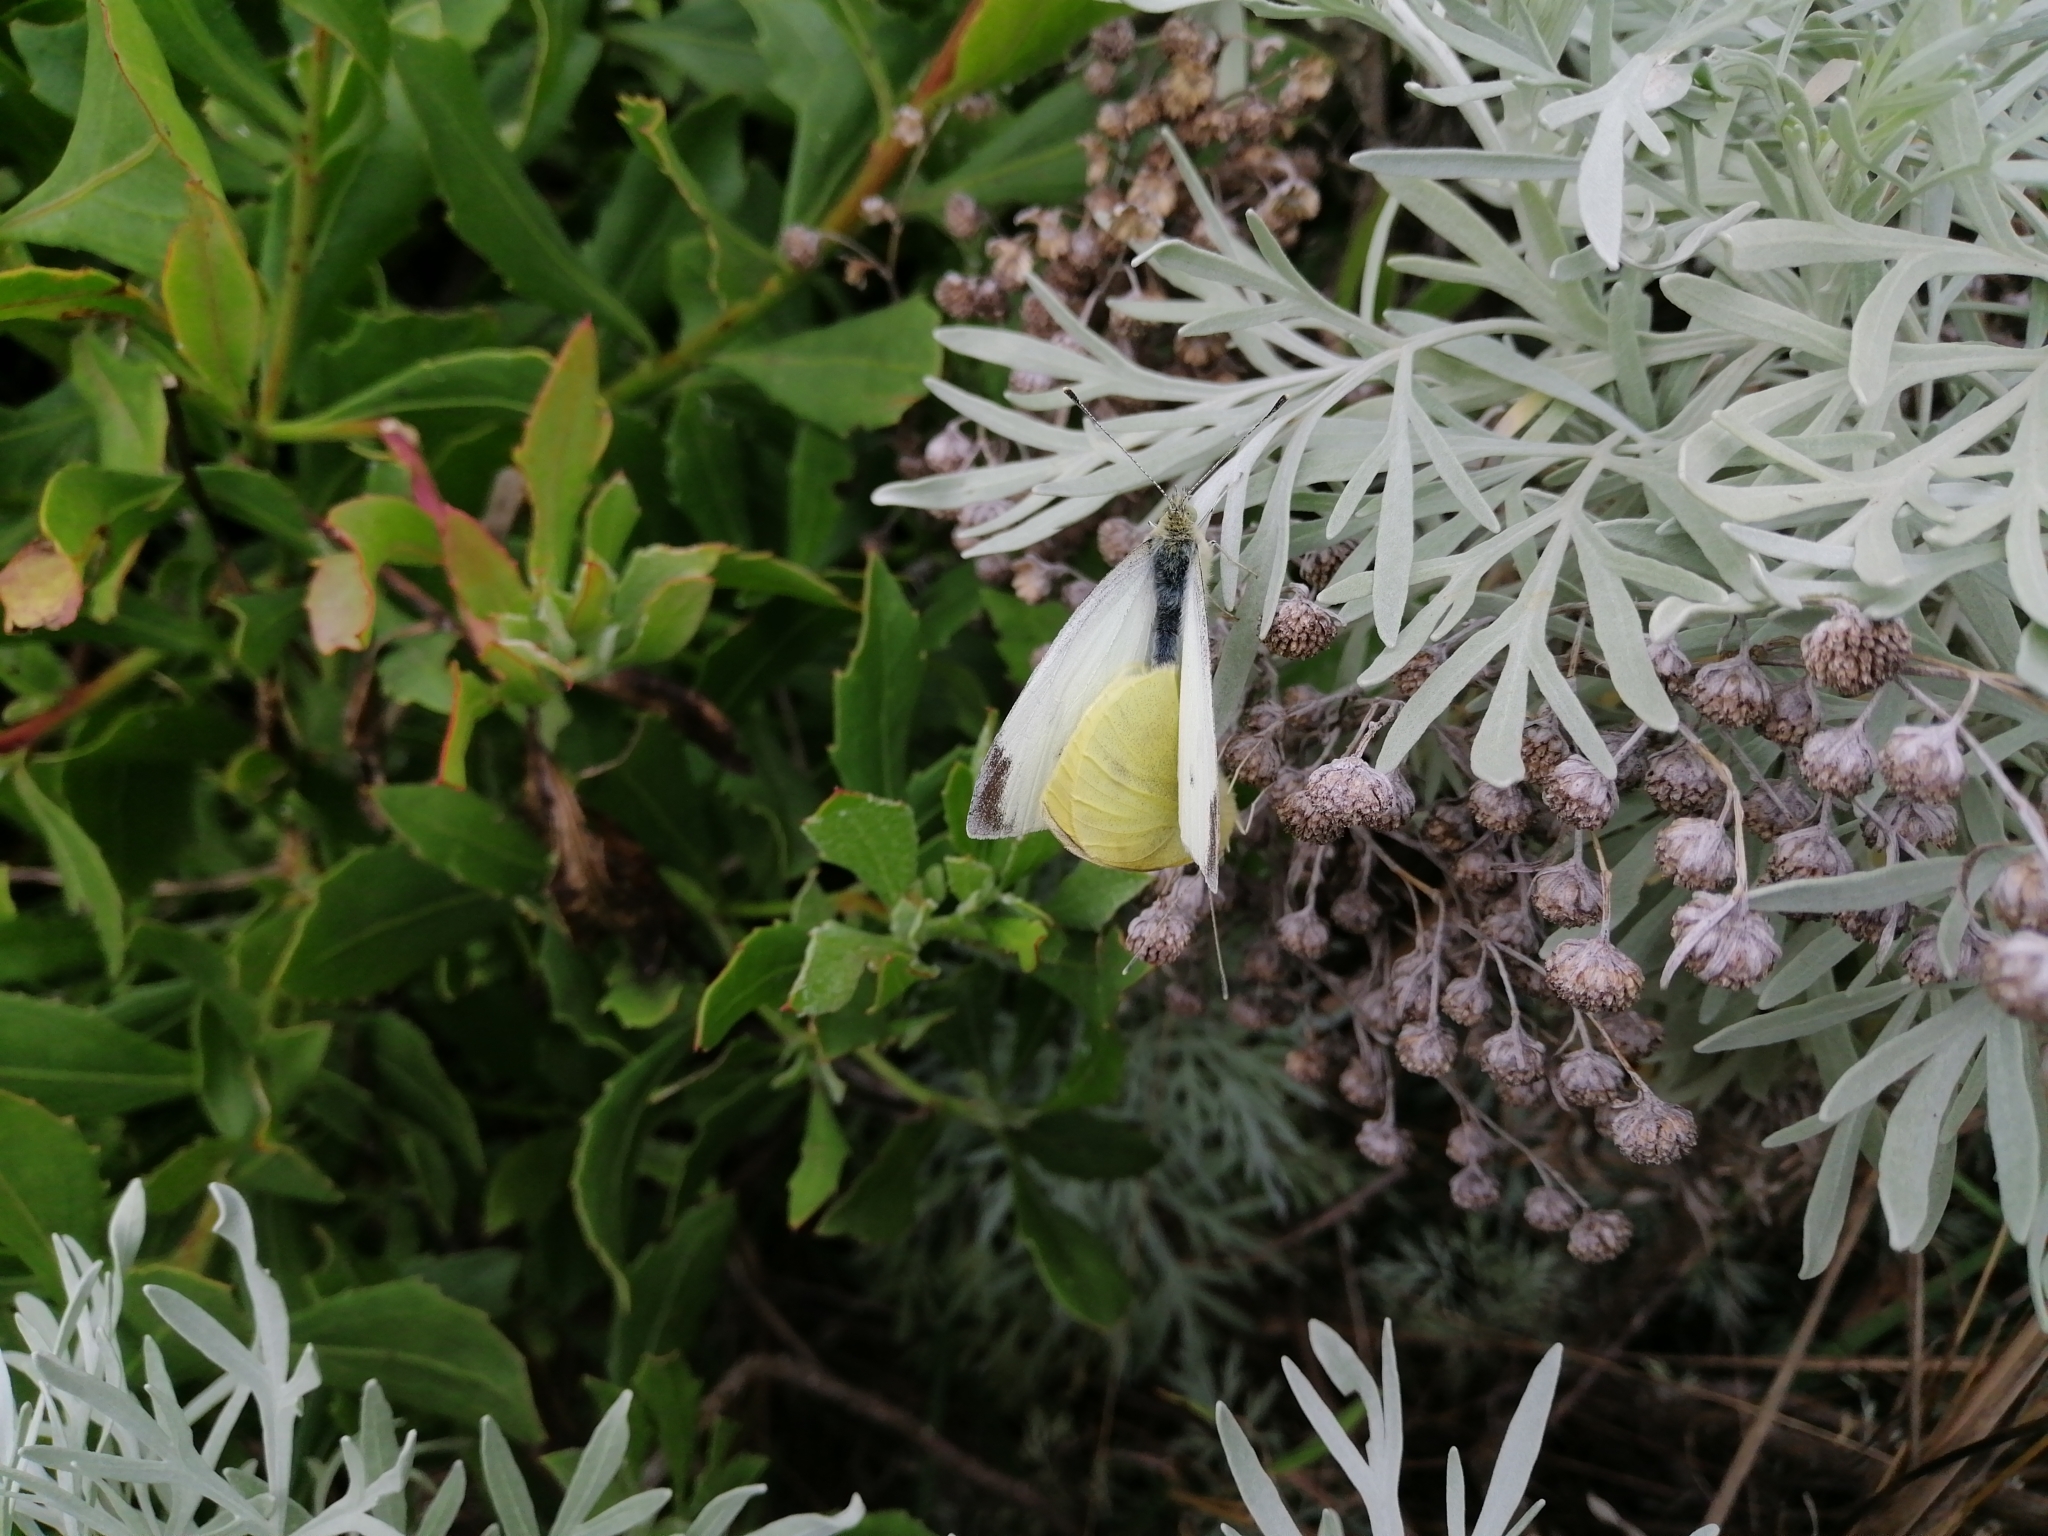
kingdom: Animalia
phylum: Arthropoda
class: Insecta
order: Lepidoptera
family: Pieridae
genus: Pieris
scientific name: Pieris rapae
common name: Small white
